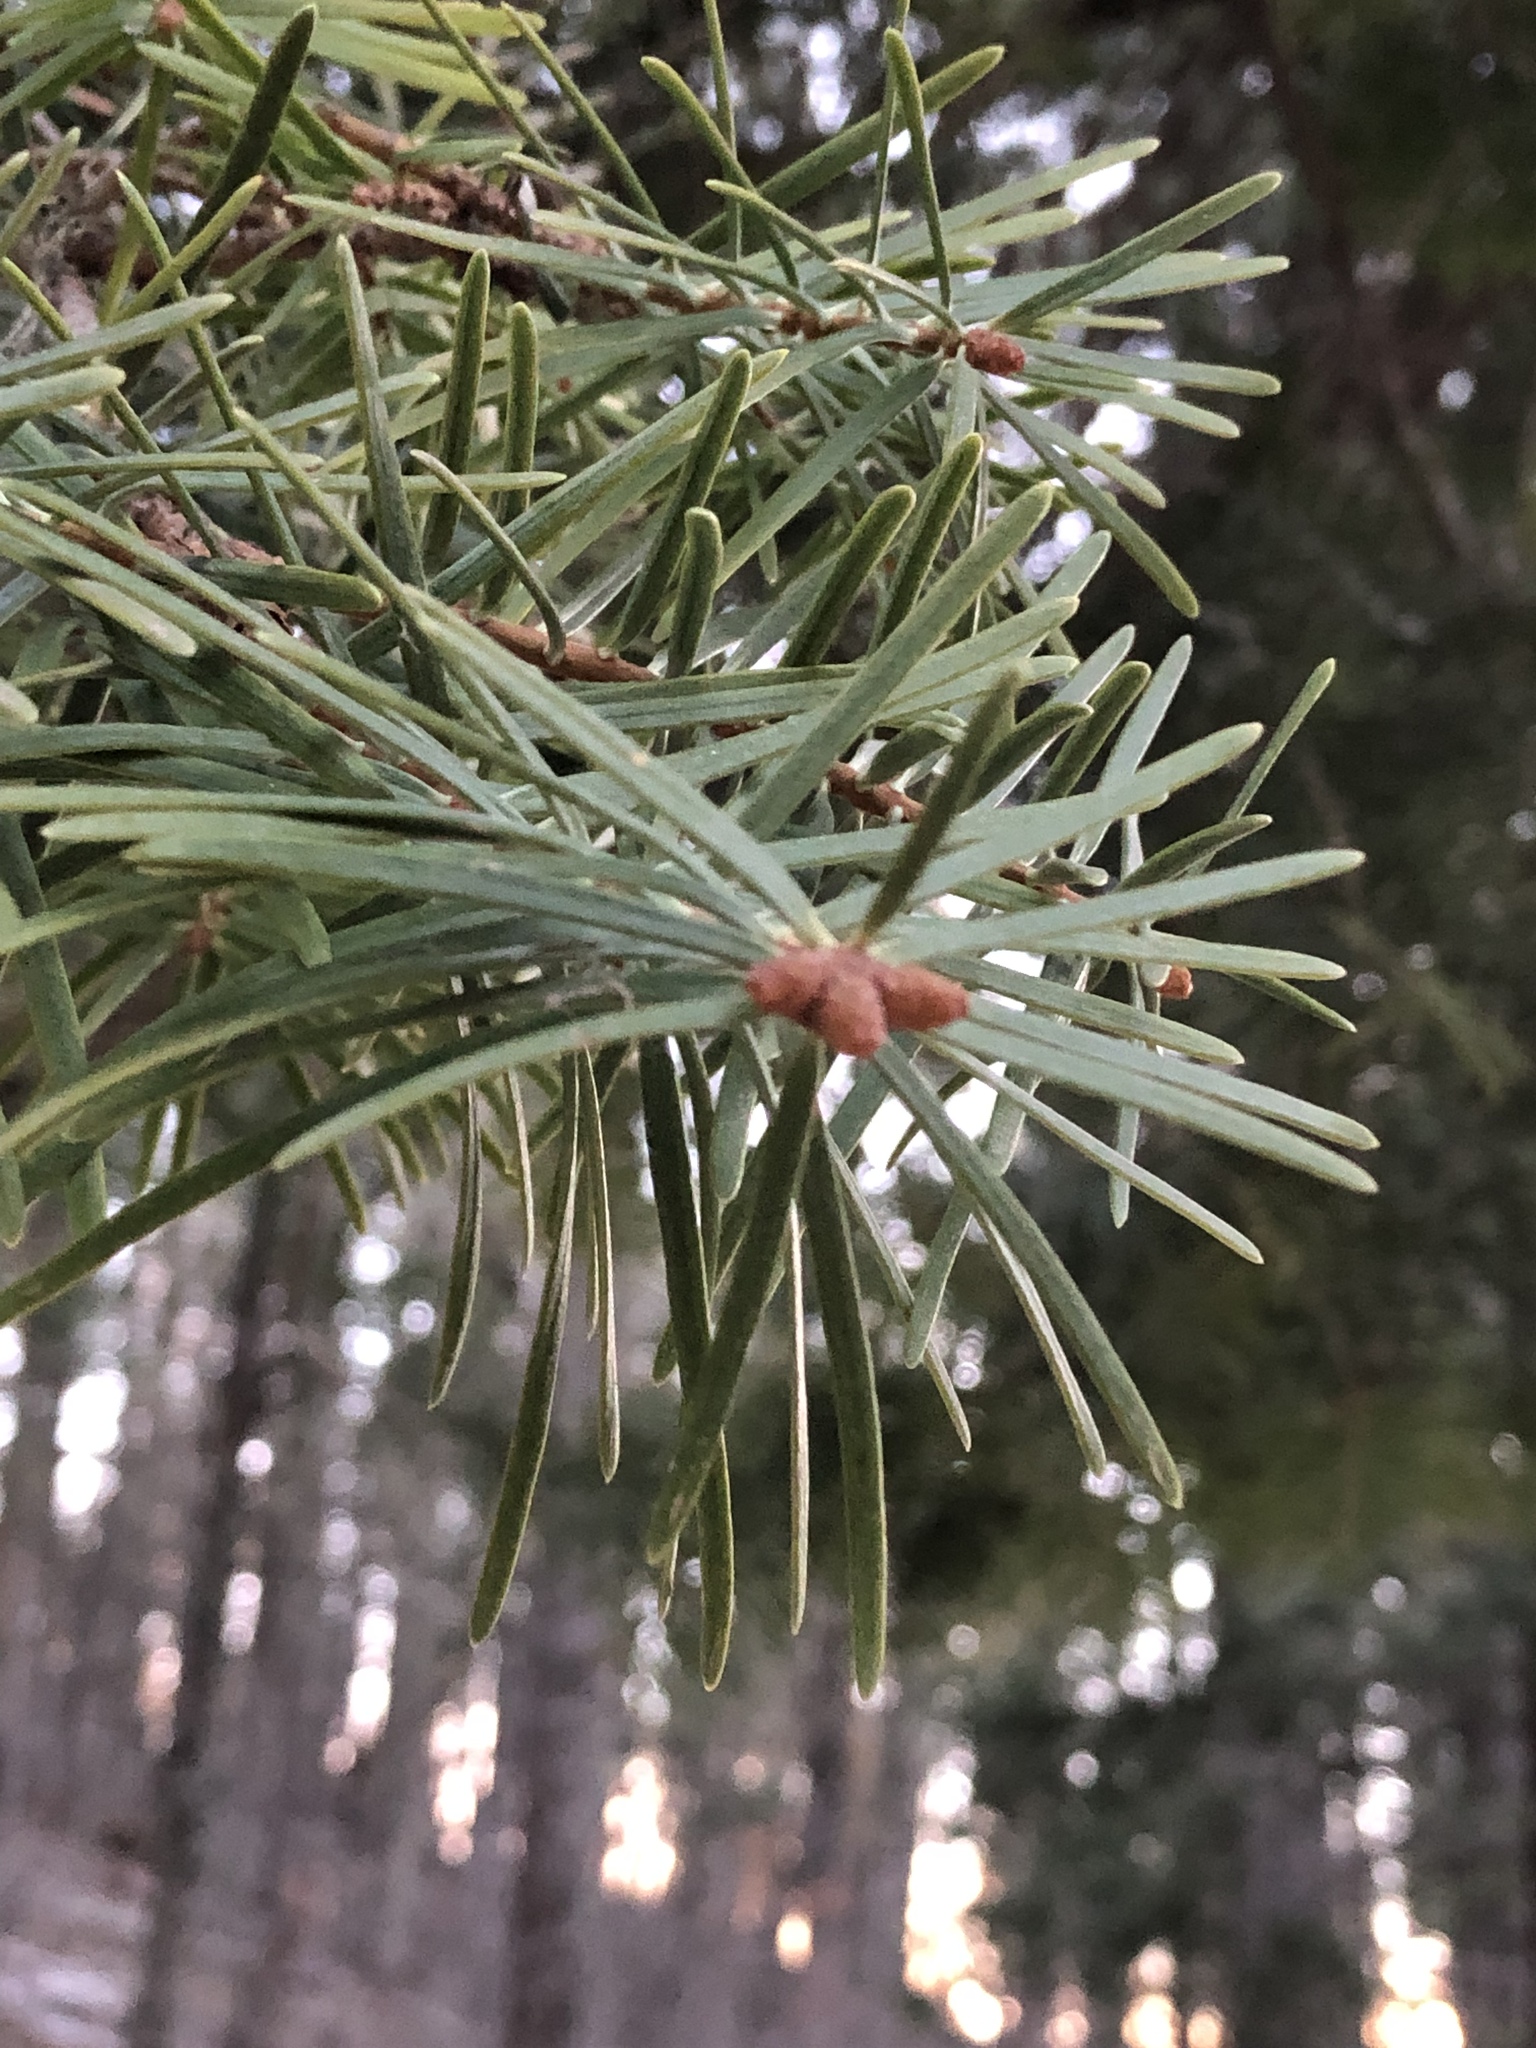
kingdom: Plantae
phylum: Tracheophyta
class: Pinopsida
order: Pinales
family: Pinaceae
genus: Abies
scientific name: Abies concolor
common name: Colorado fir
